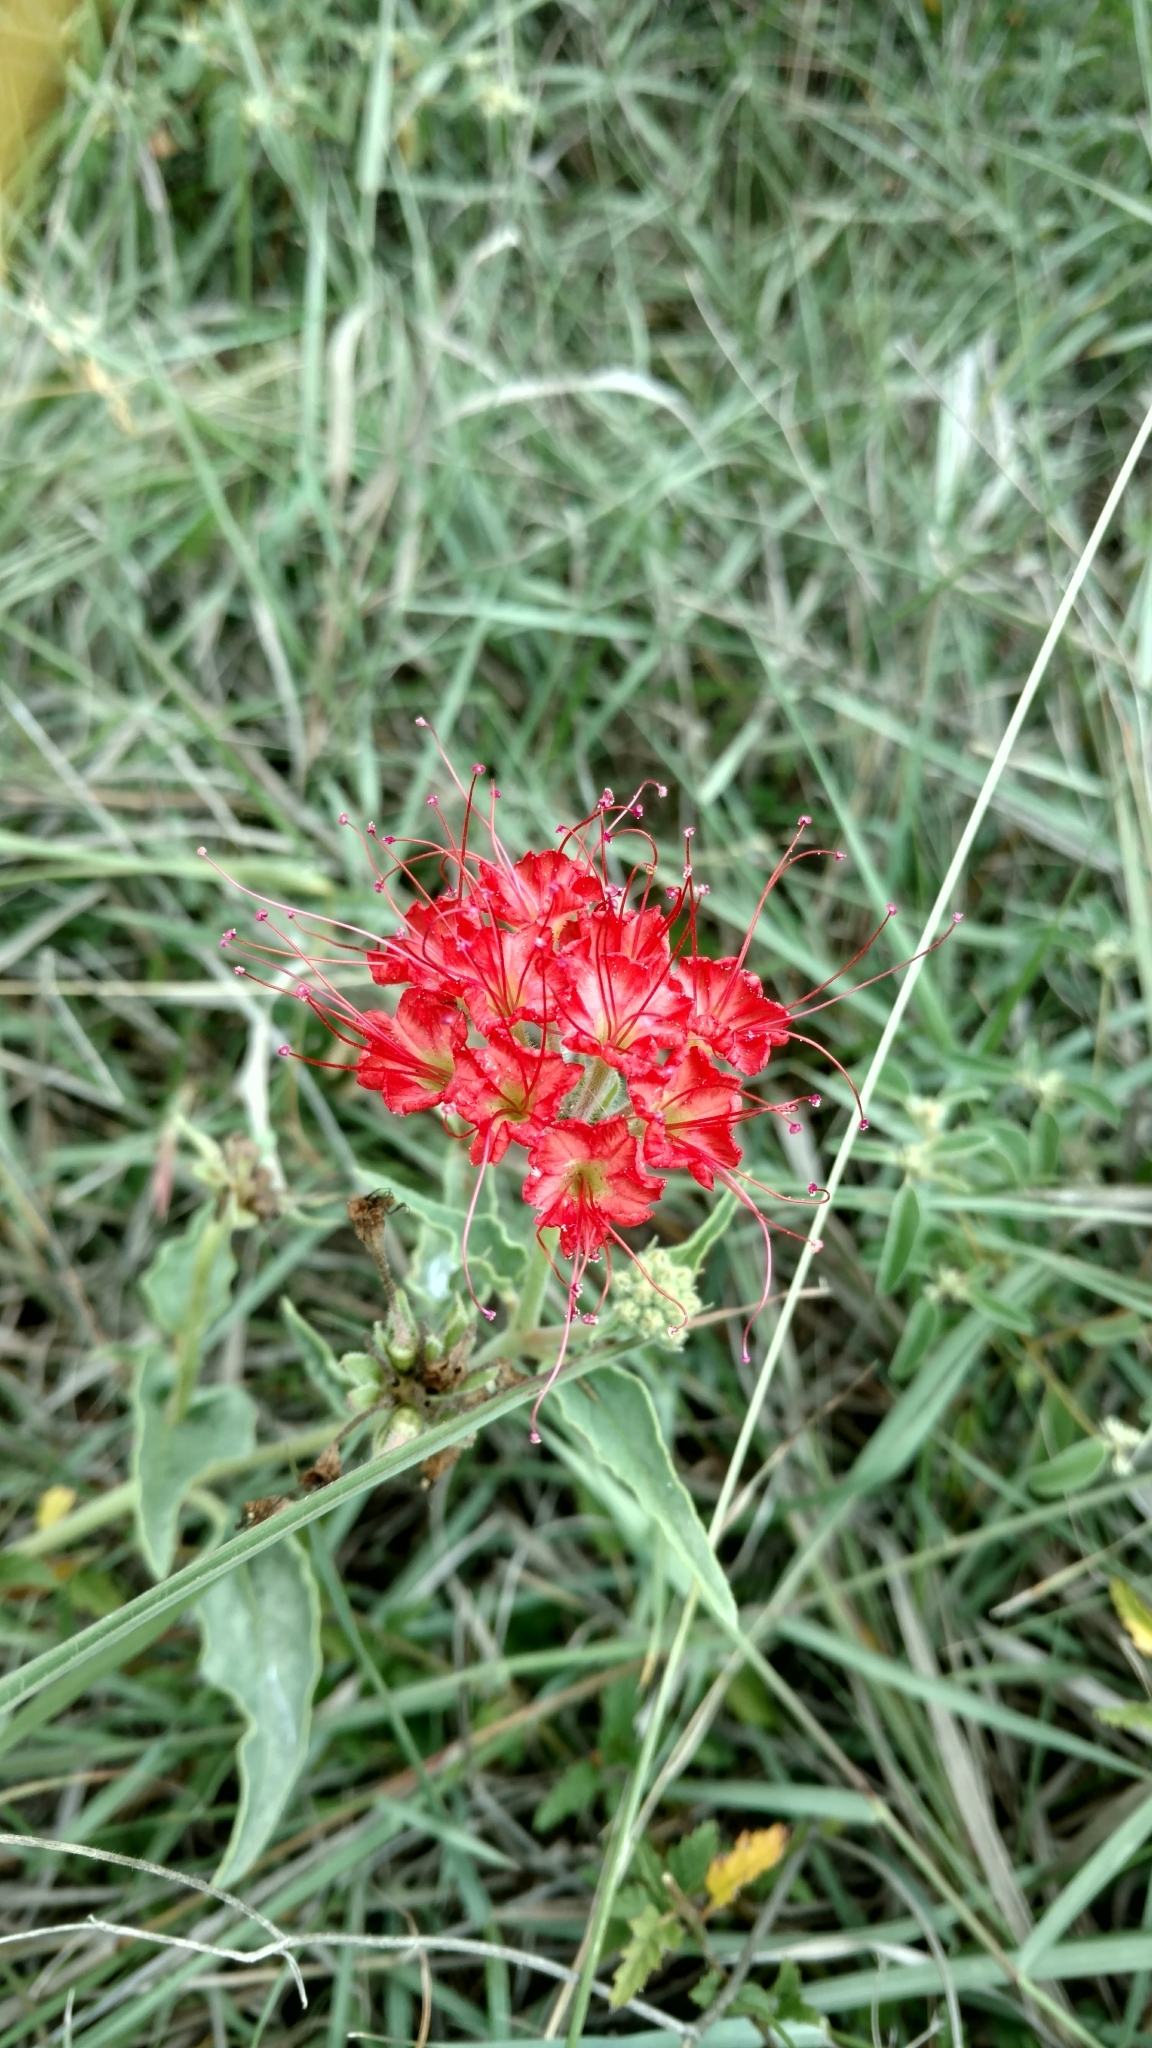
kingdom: Plantae
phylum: Tracheophyta
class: Magnoliopsida
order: Caryophyllales
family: Nyctaginaceae
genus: Nyctaginia
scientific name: Nyctaginia capitata
